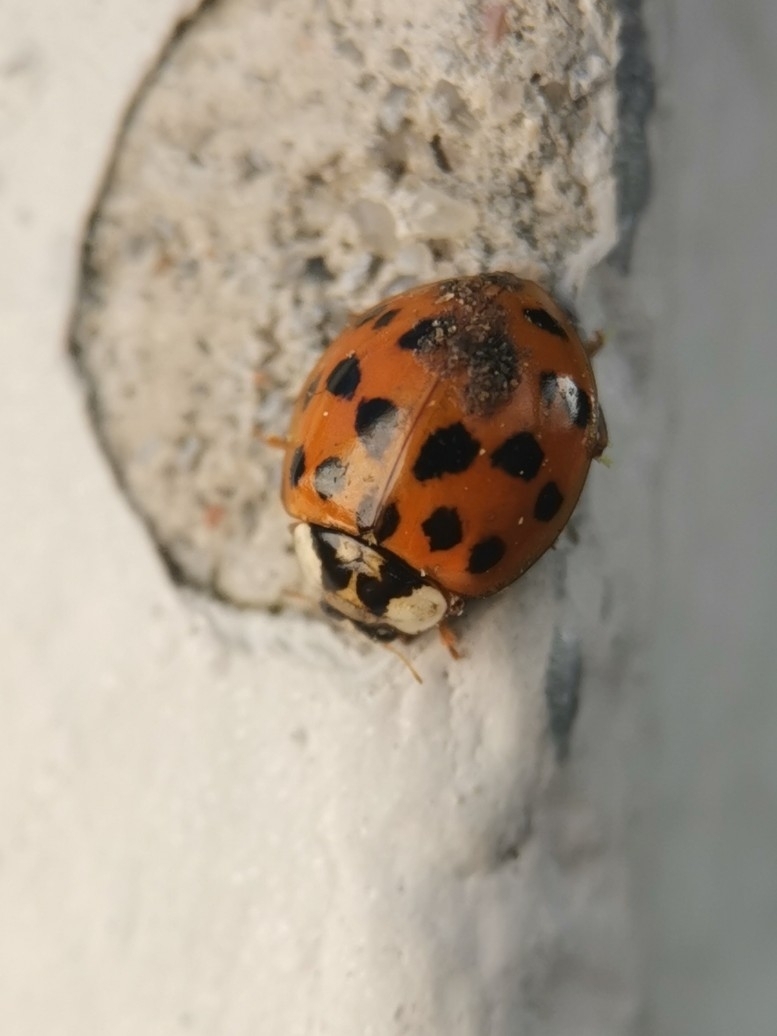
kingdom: Animalia
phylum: Arthropoda
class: Insecta
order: Coleoptera
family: Coccinellidae
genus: Harmonia
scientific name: Harmonia axyridis
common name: Harlequin ladybird
